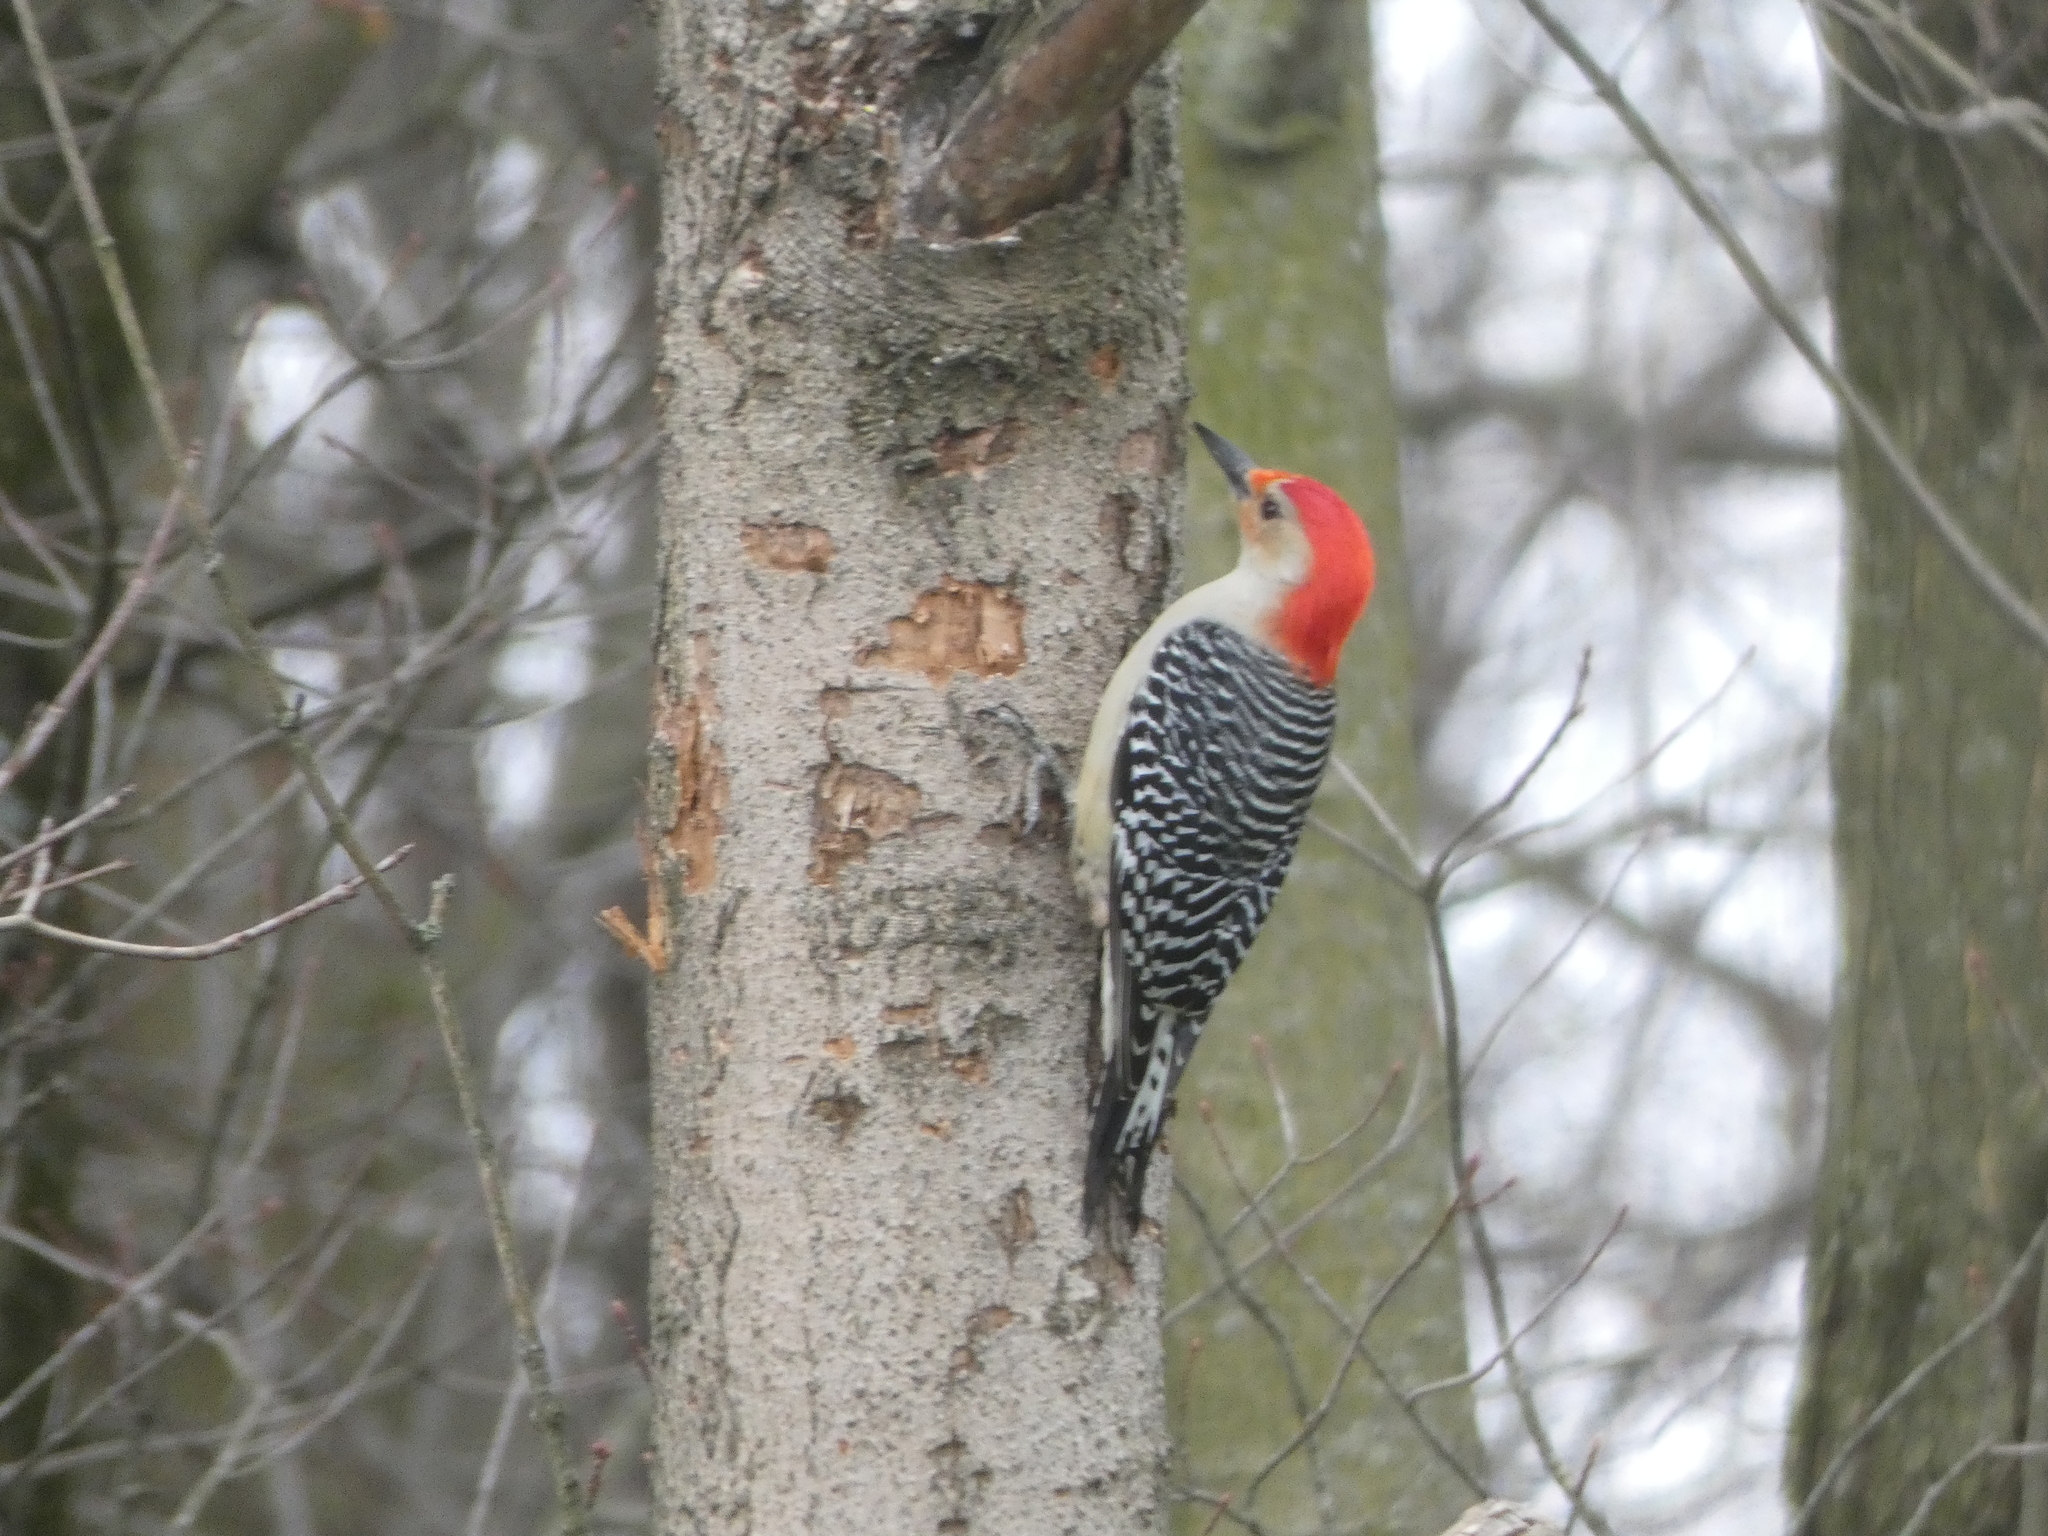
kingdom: Animalia
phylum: Chordata
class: Aves
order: Piciformes
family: Picidae
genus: Melanerpes
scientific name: Melanerpes carolinus
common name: Red-bellied woodpecker
